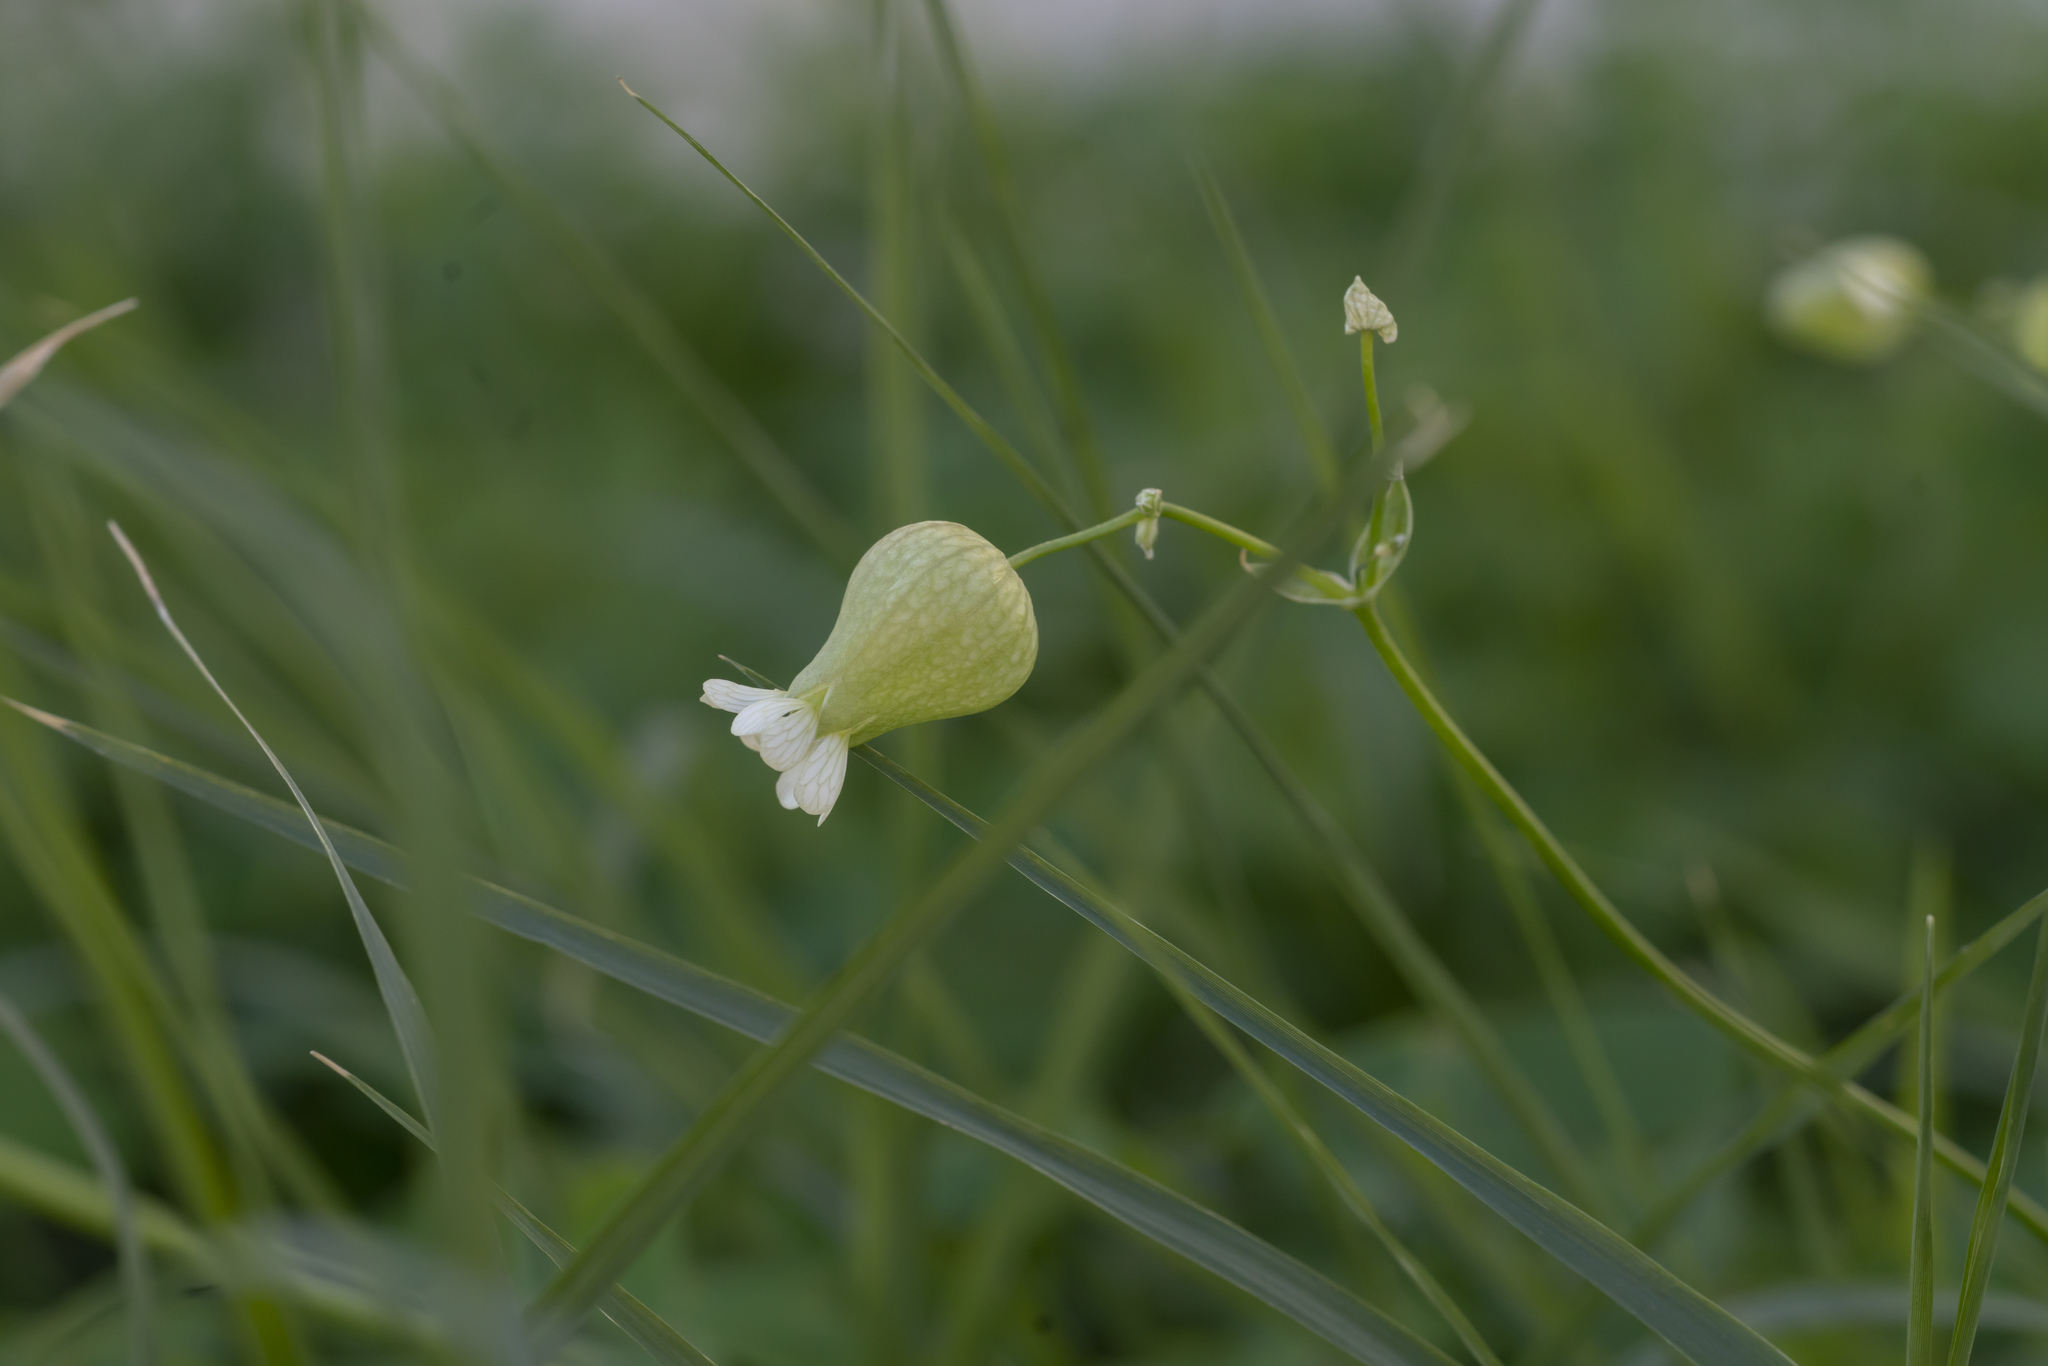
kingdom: Plantae
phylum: Tracheophyta
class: Magnoliopsida
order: Caryophyllales
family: Caryophyllaceae
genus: Silene
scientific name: Silene vulgaris
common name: Bladder campion
